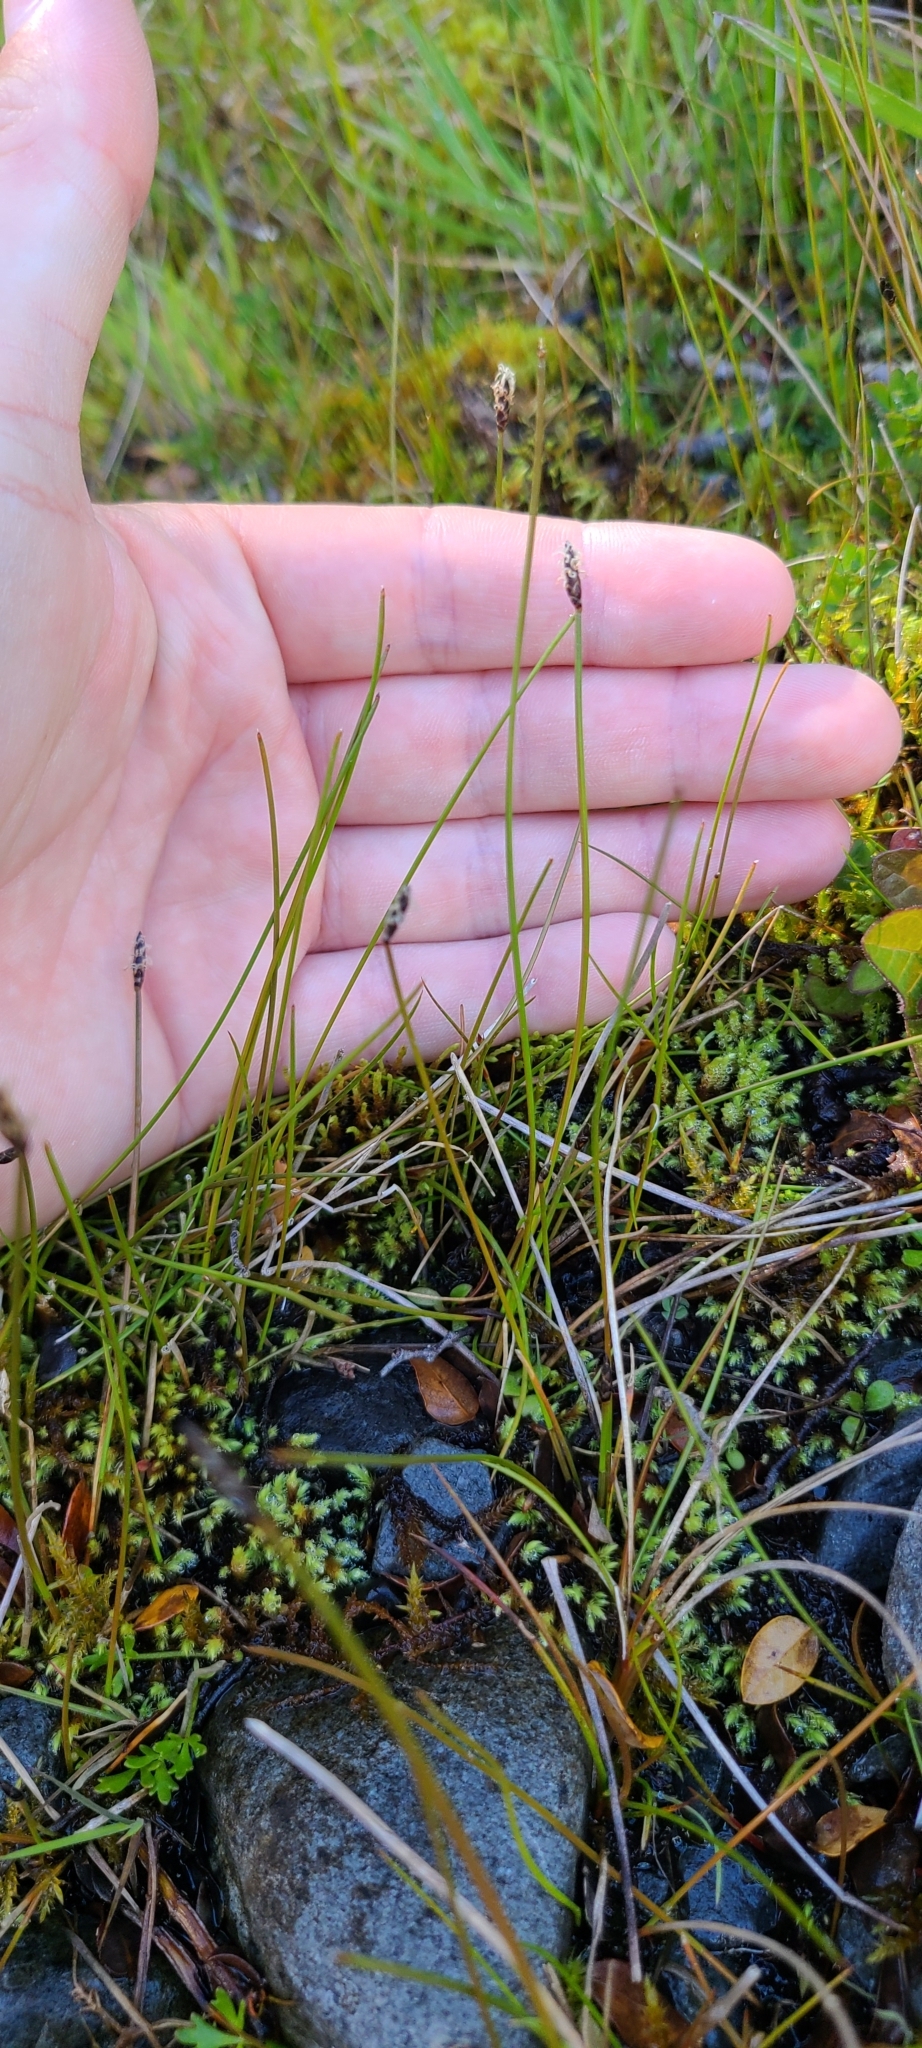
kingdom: Plantae
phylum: Tracheophyta
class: Liliopsida
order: Poales
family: Cyperaceae
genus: Eleocharis
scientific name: Eleocharis acuta
